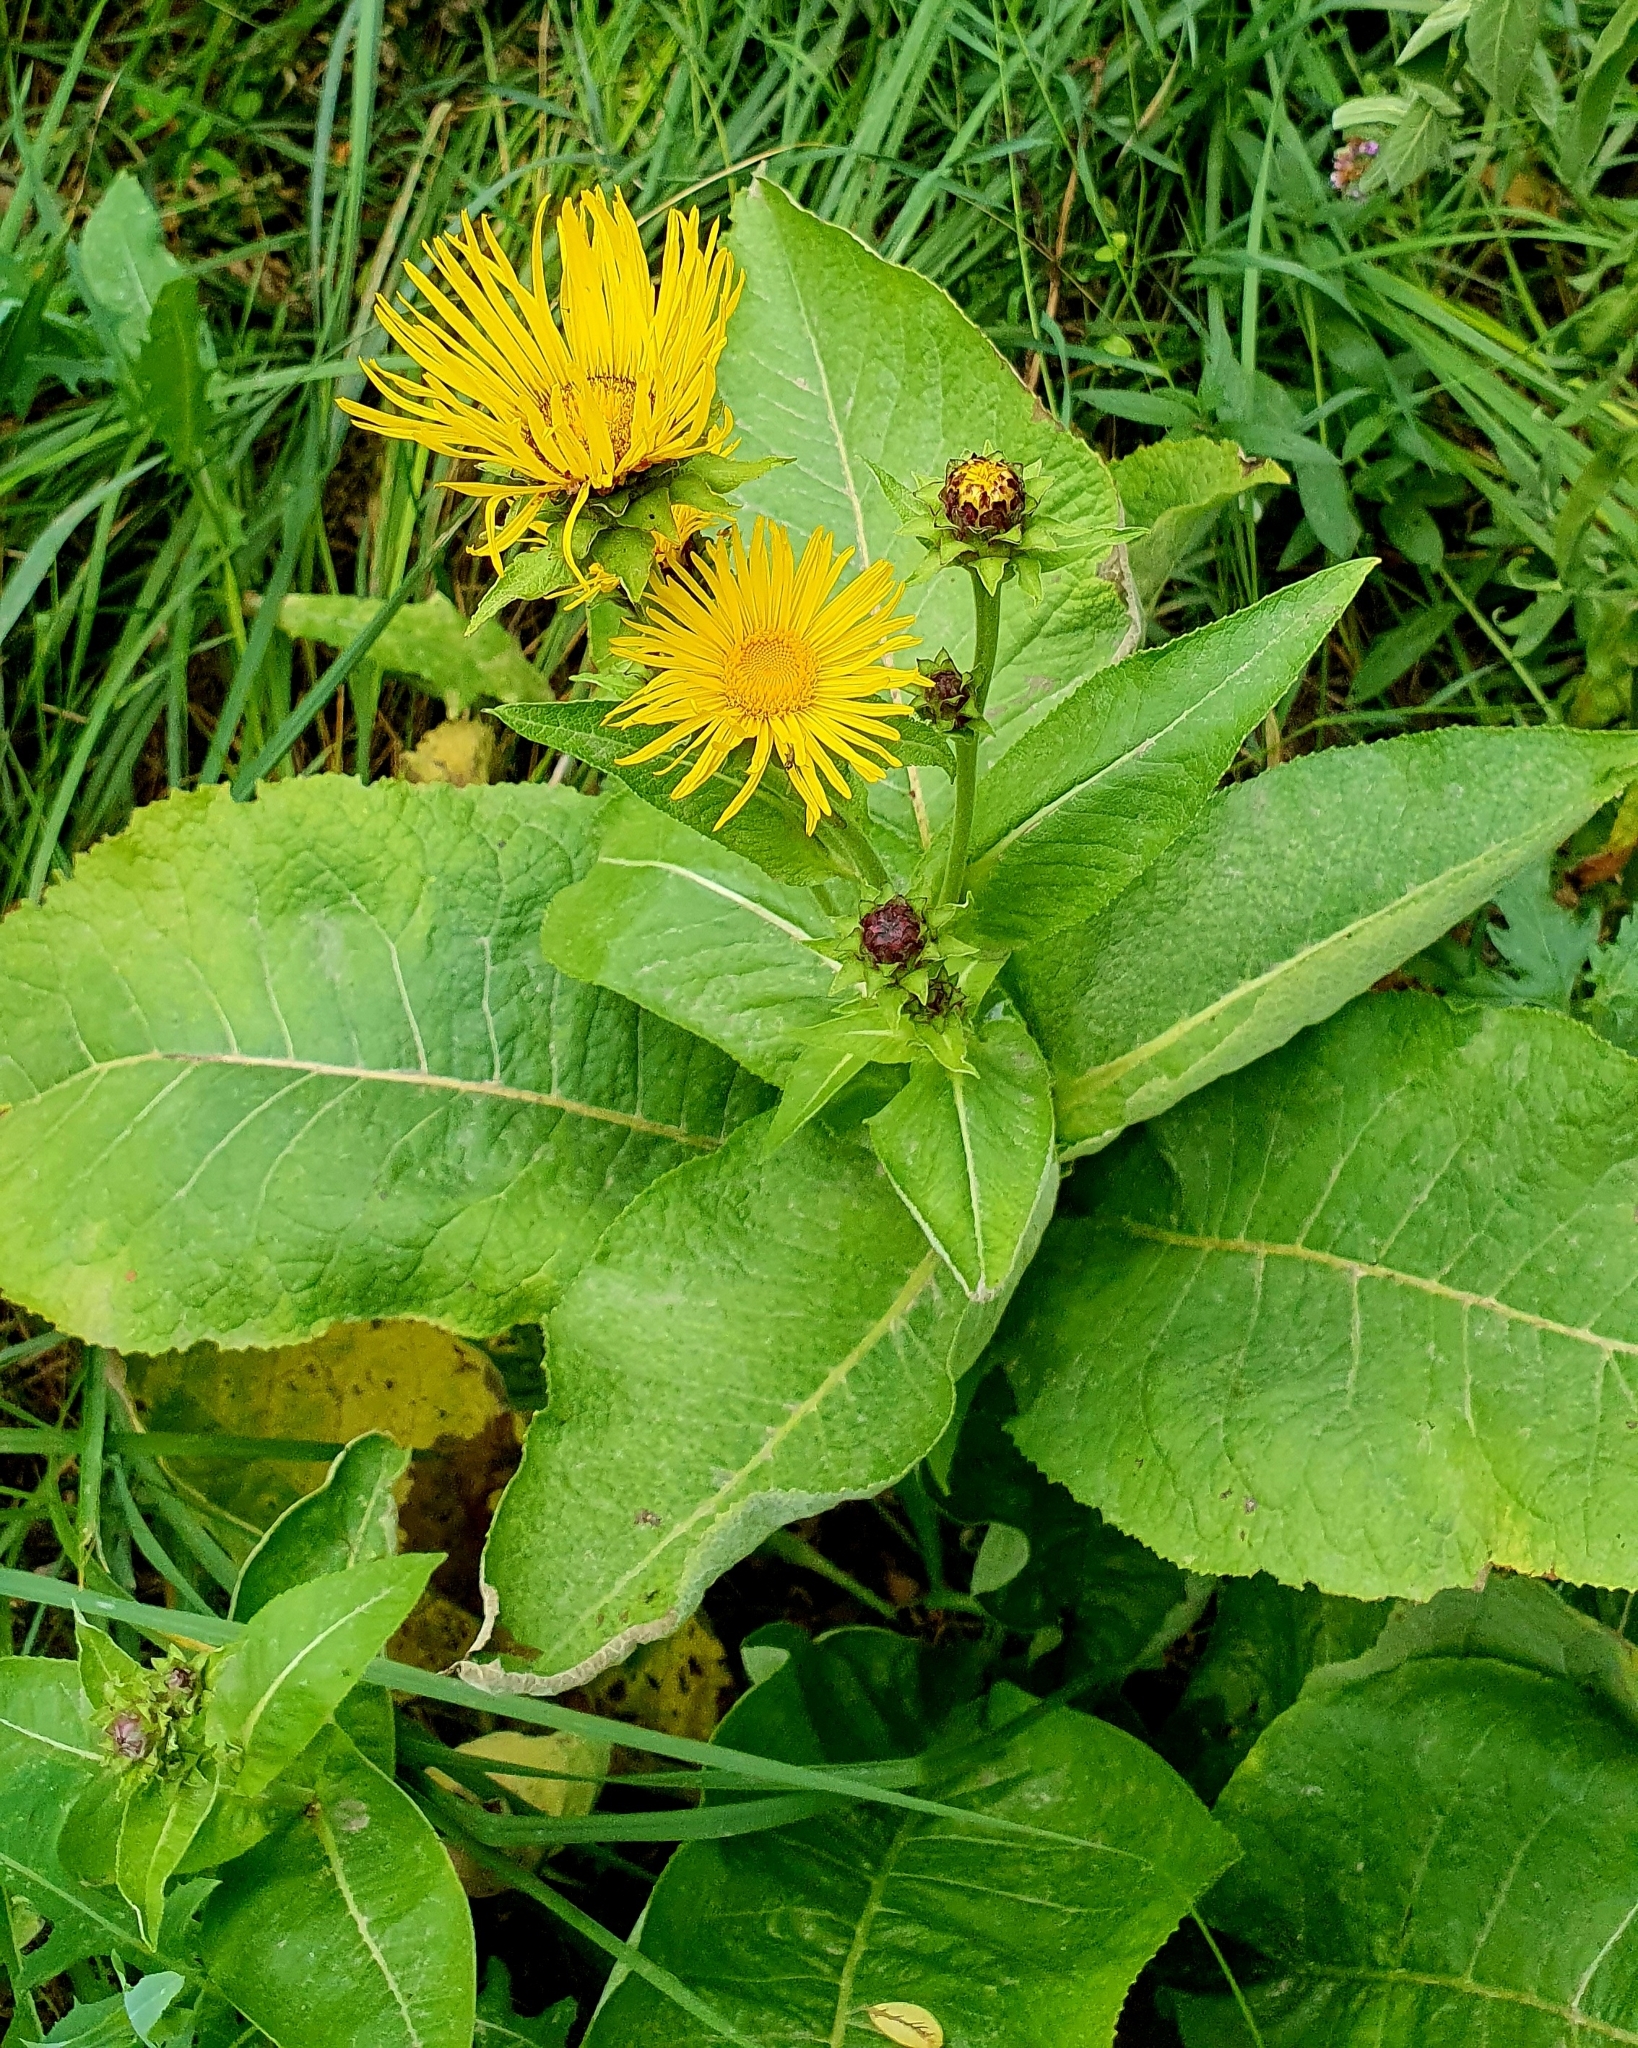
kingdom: Plantae
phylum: Tracheophyta
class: Magnoliopsida
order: Asterales
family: Asteraceae
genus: Inula
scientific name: Inula helenium
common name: Elecampane
